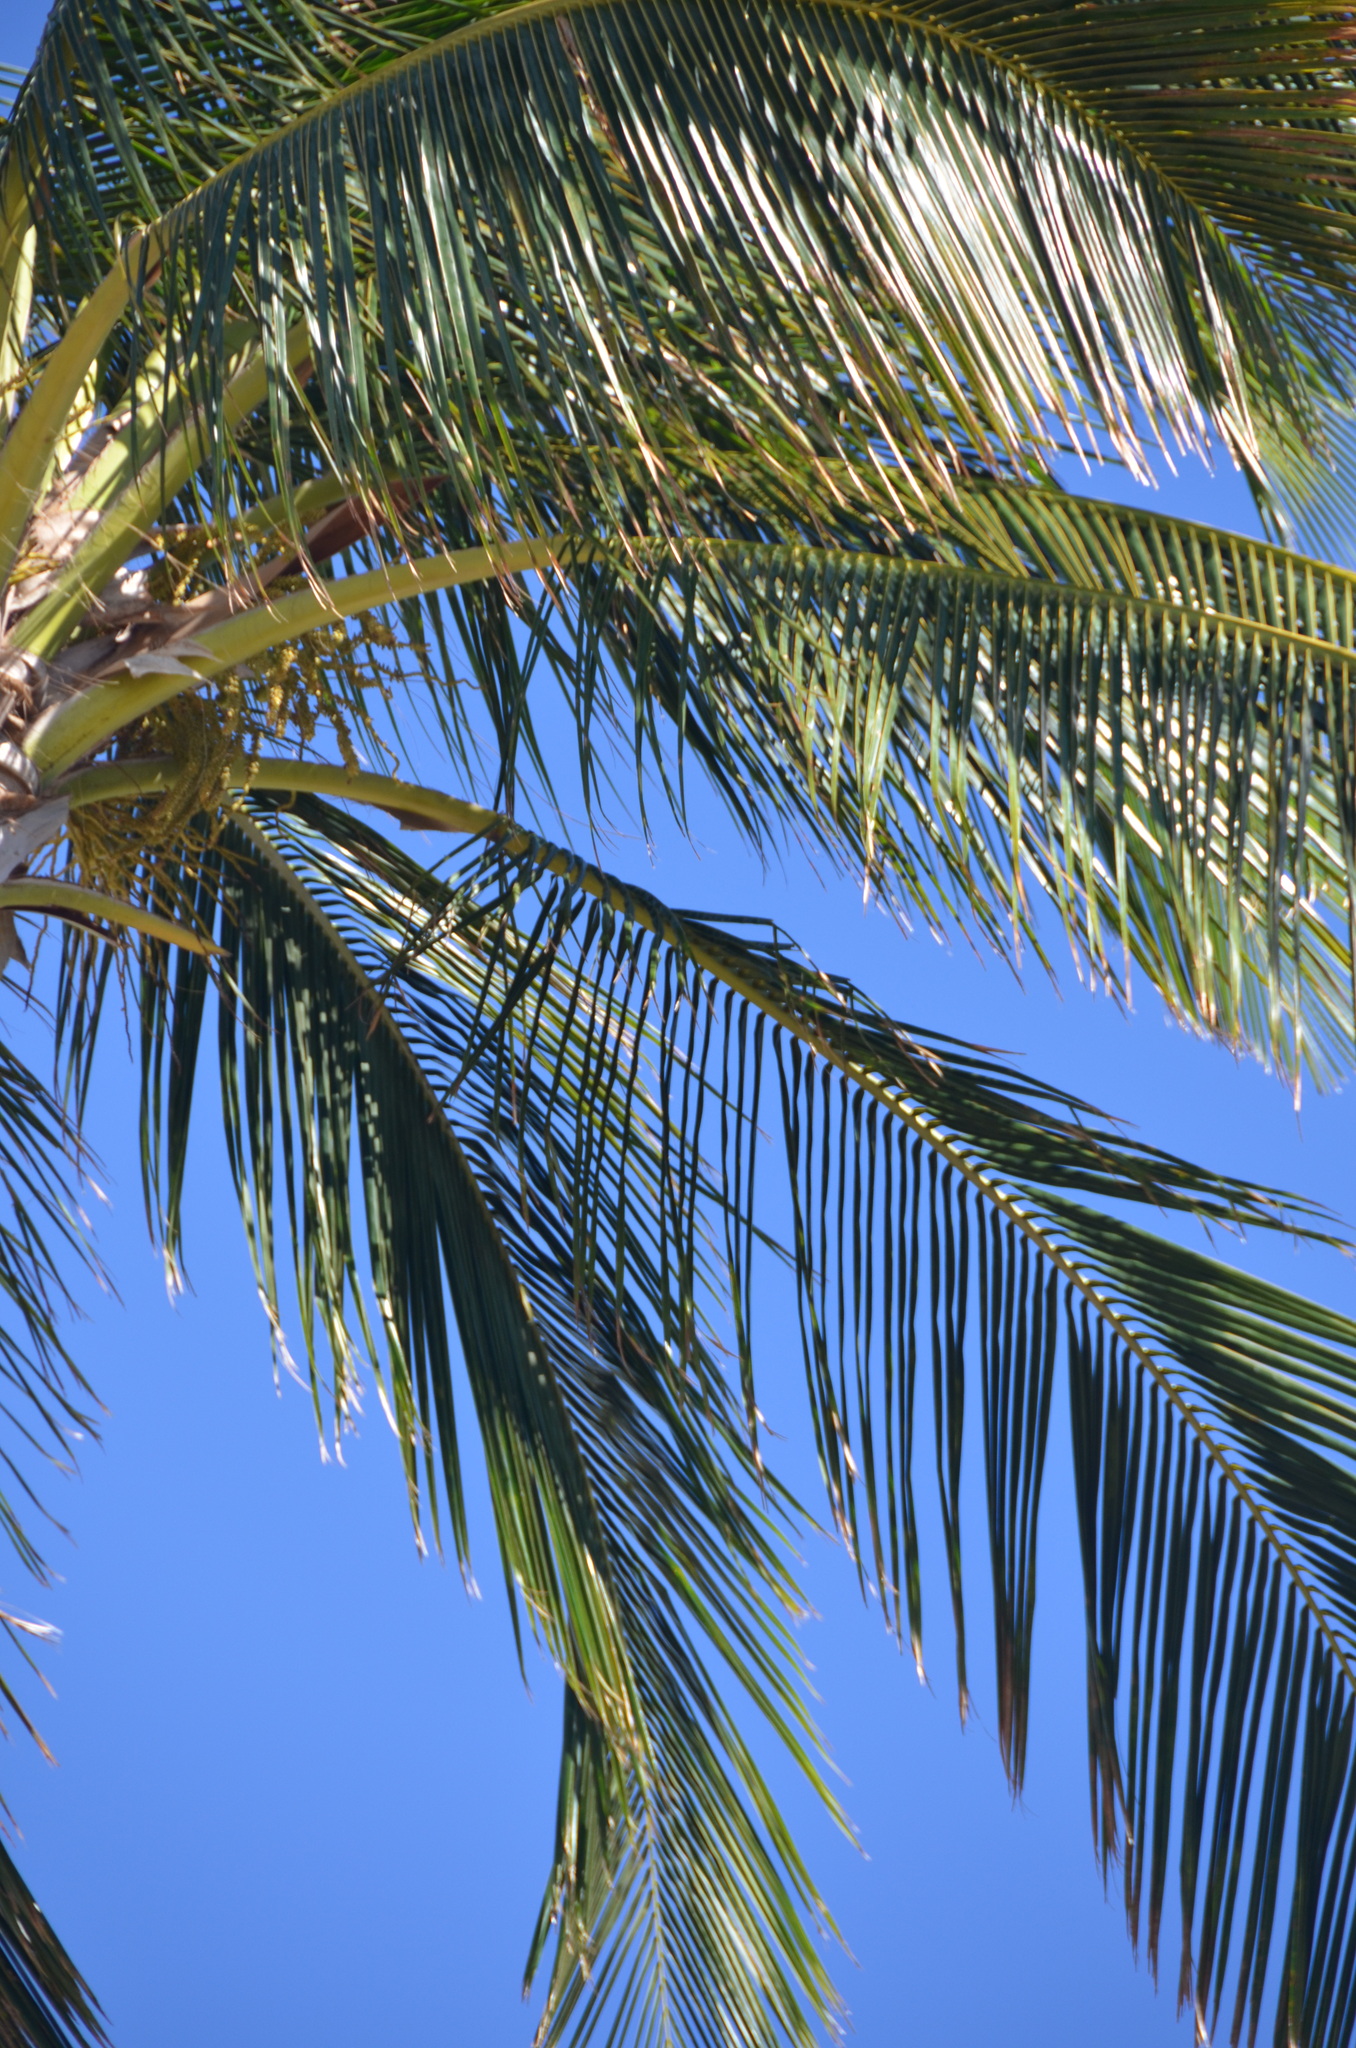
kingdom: Plantae
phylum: Tracheophyta
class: Liliopsida
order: Arecales
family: Arecaceae
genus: Cocos
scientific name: Cocos nucifera
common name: Coconut palm
